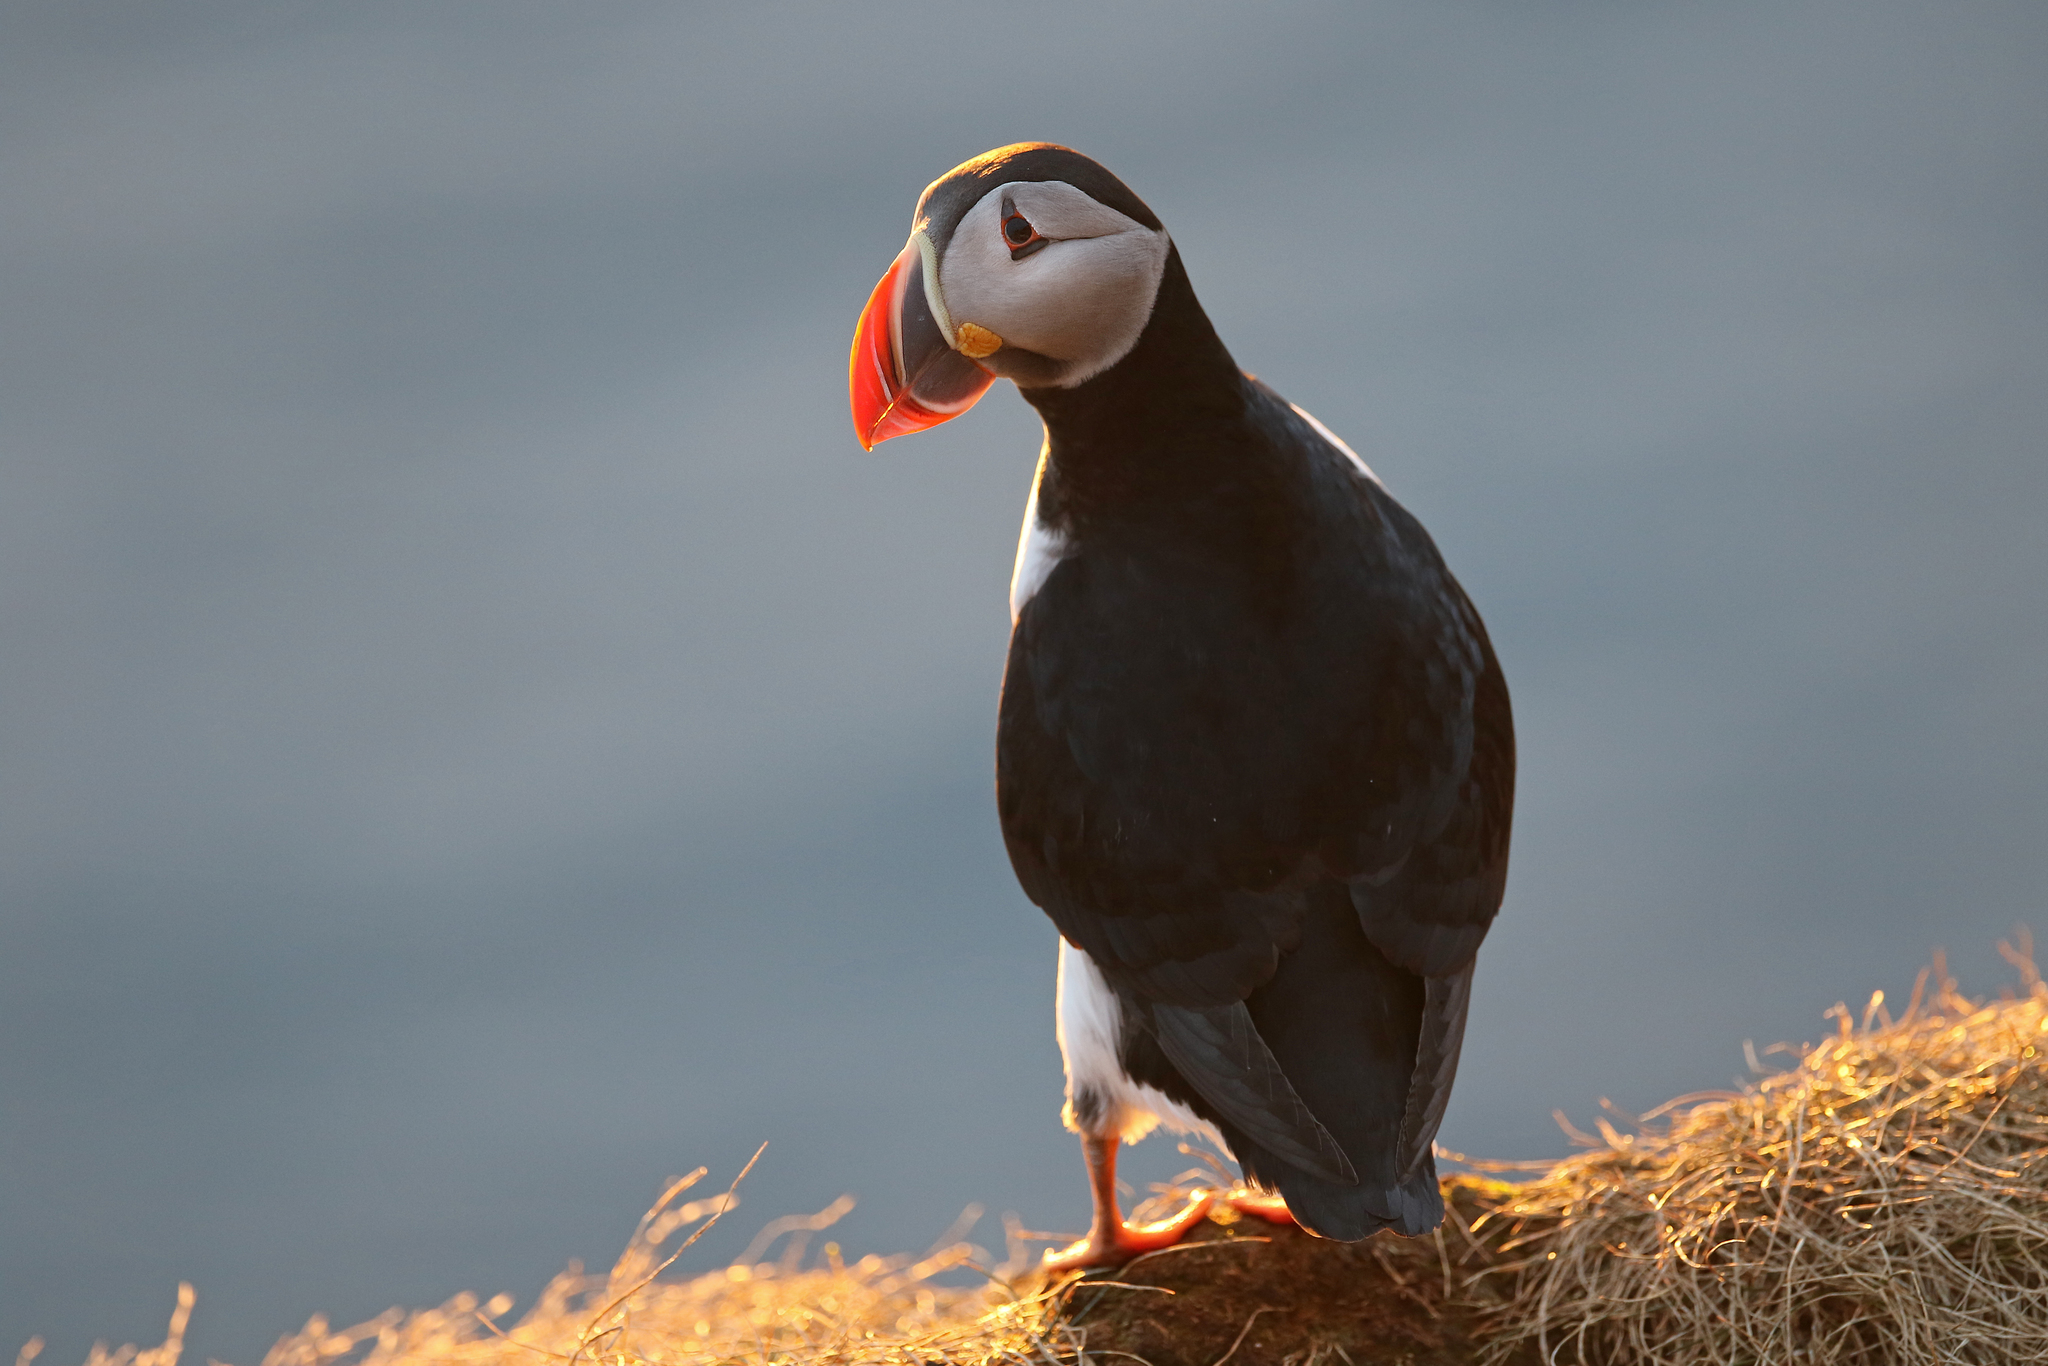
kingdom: Animalia
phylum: Chordata
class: Aves
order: Charadriiformes
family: Alcidae
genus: Fratercula
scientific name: Fratercula arctica
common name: Atlantic puffin
